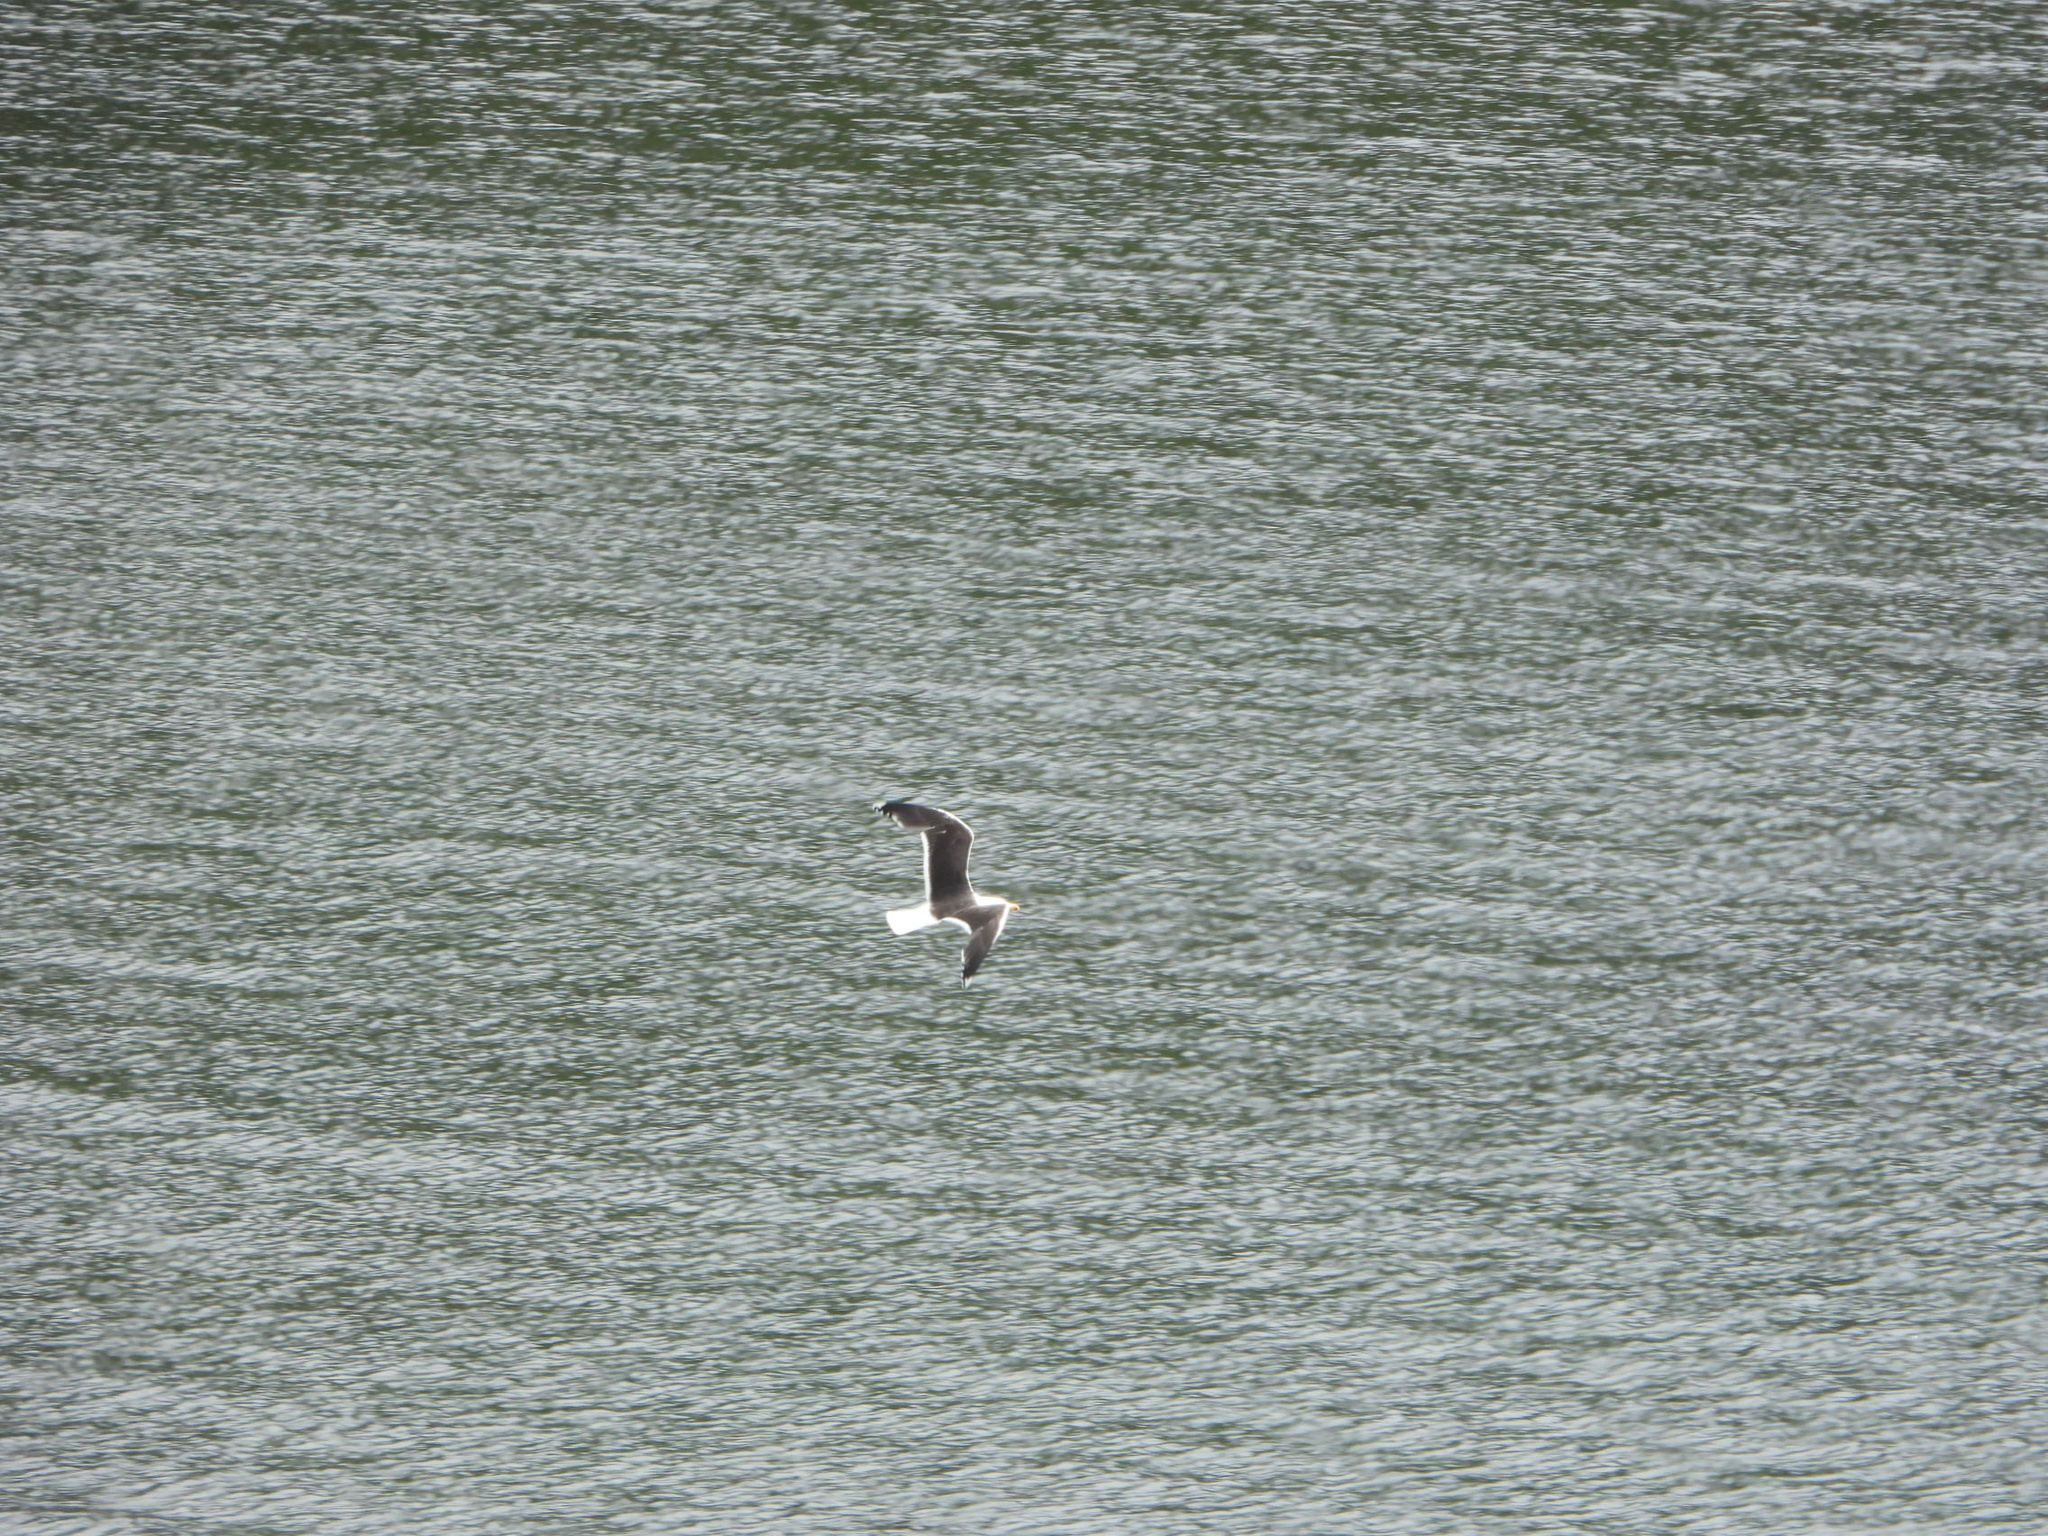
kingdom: Animalia
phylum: Chordata
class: Aves
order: Charadriiformes
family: Laridae
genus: Larus
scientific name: Larus marinus
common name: Great black-backed gull
